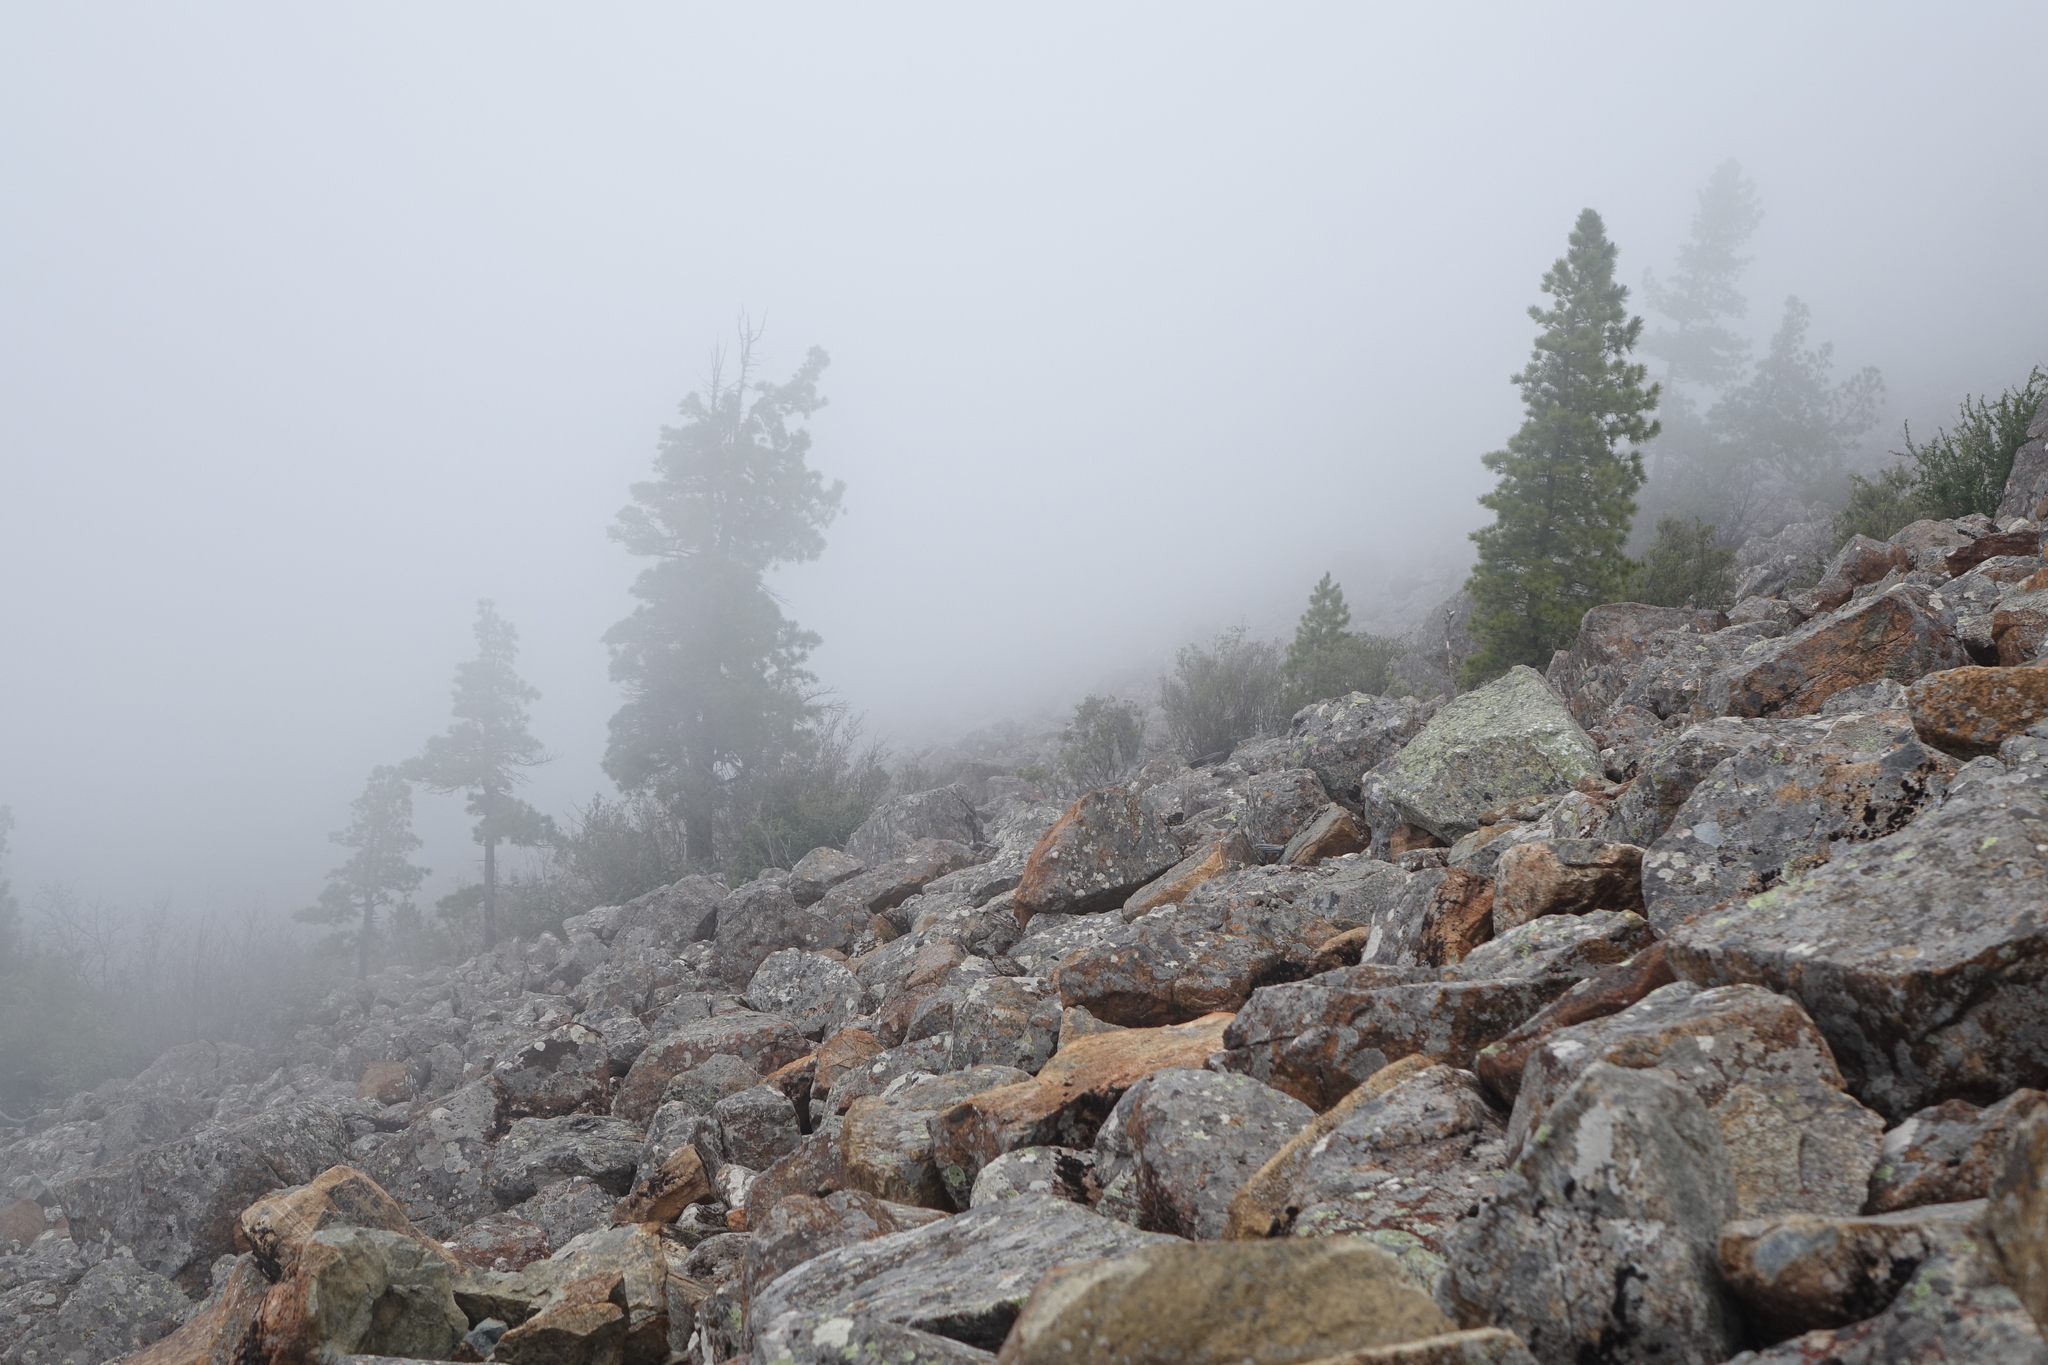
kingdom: Plantae
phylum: Tracheophyta
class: Pinopsida
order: Pinales
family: Pinaceae
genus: Pinus
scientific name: Pinus sibirica
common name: Siberian pine
